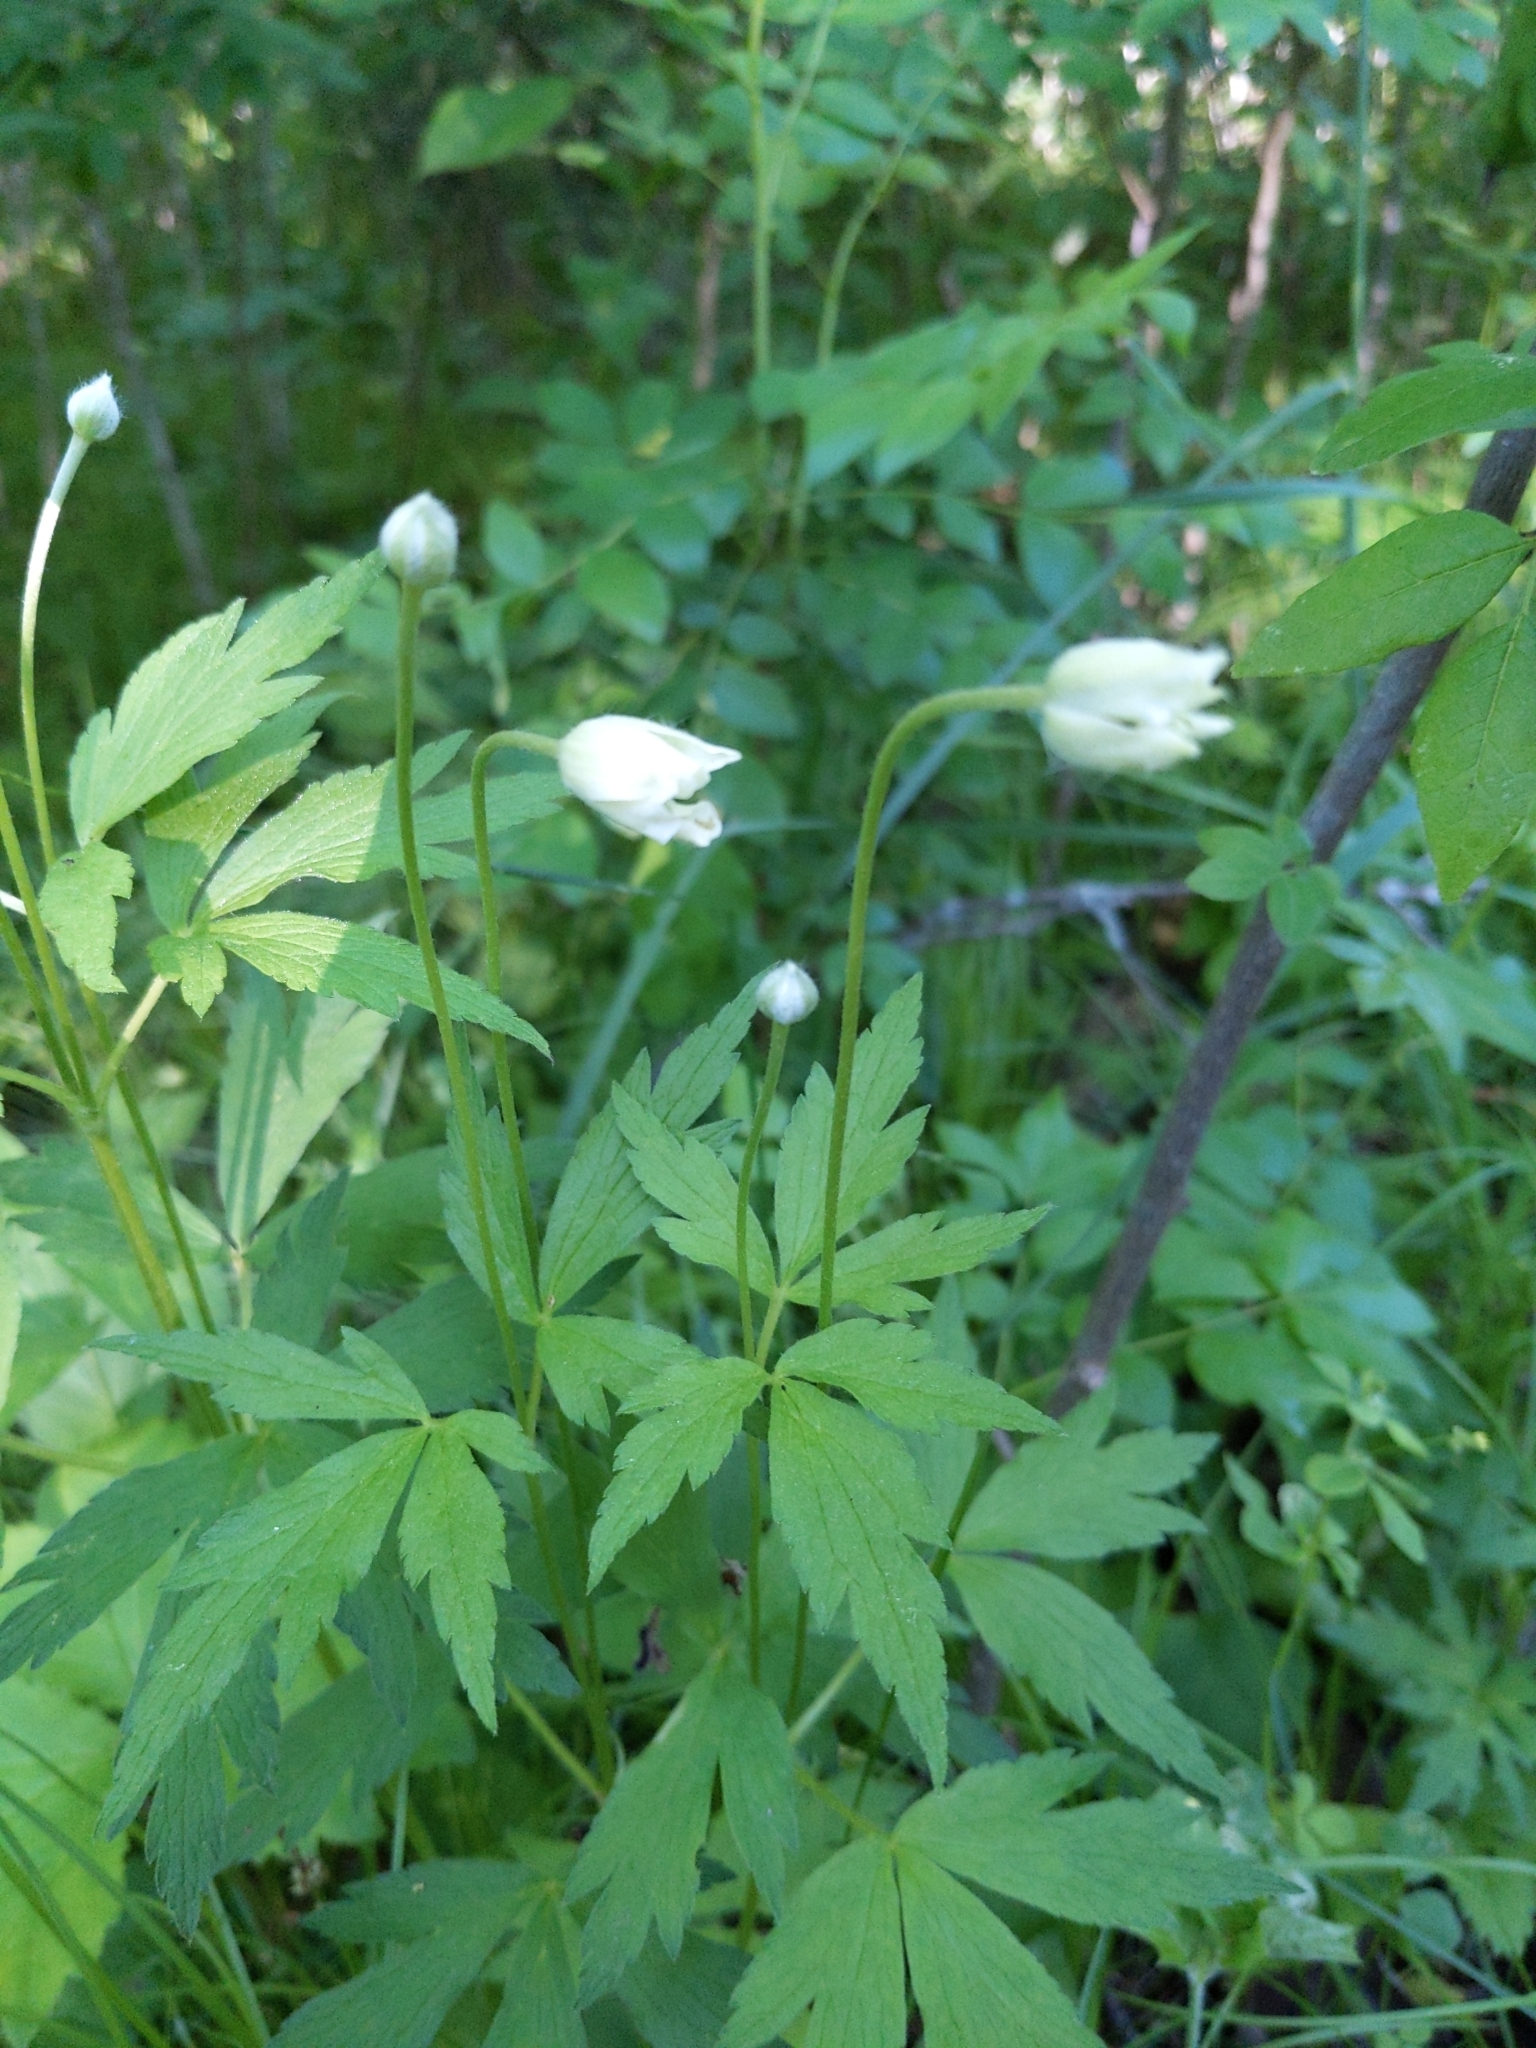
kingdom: Plantae
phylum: Tracheophyta
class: Magnoliopsida
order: Ranunculales
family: Ranunculaceae
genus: Anemone
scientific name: Anemone virginiana
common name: Tall anemone
